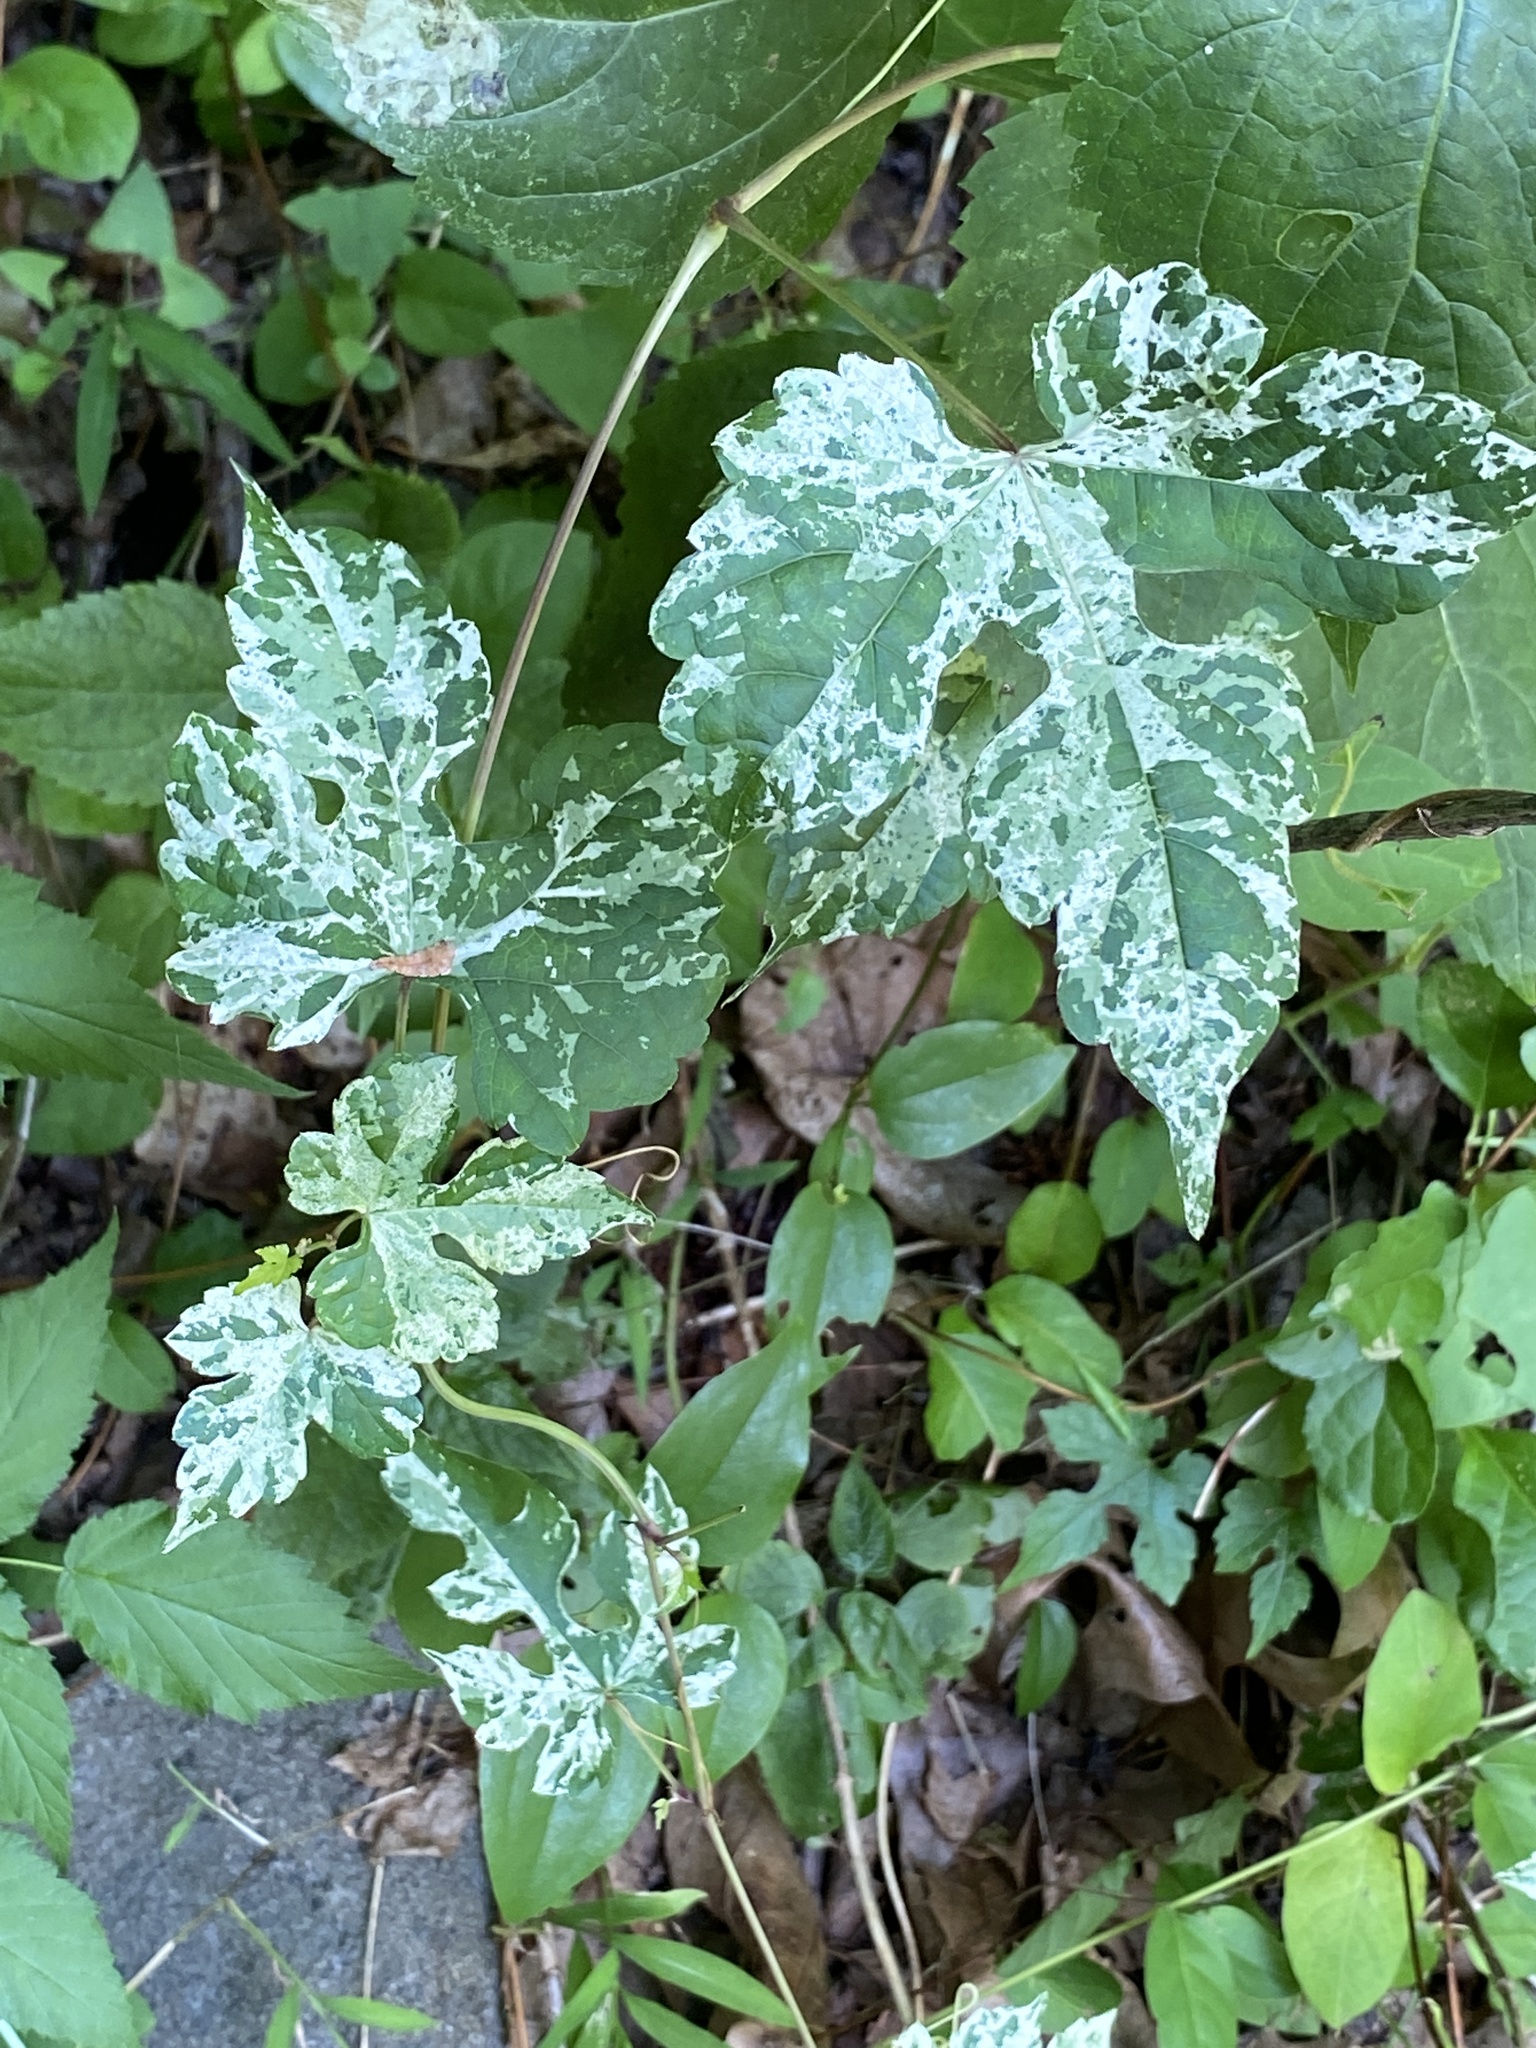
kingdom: Plantae
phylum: Tracheophyta
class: Magnoliopsida
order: Vitales
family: Vitaceae
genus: Ampelopsis
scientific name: Ampelopsis glandulosa
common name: Amur peppervine
